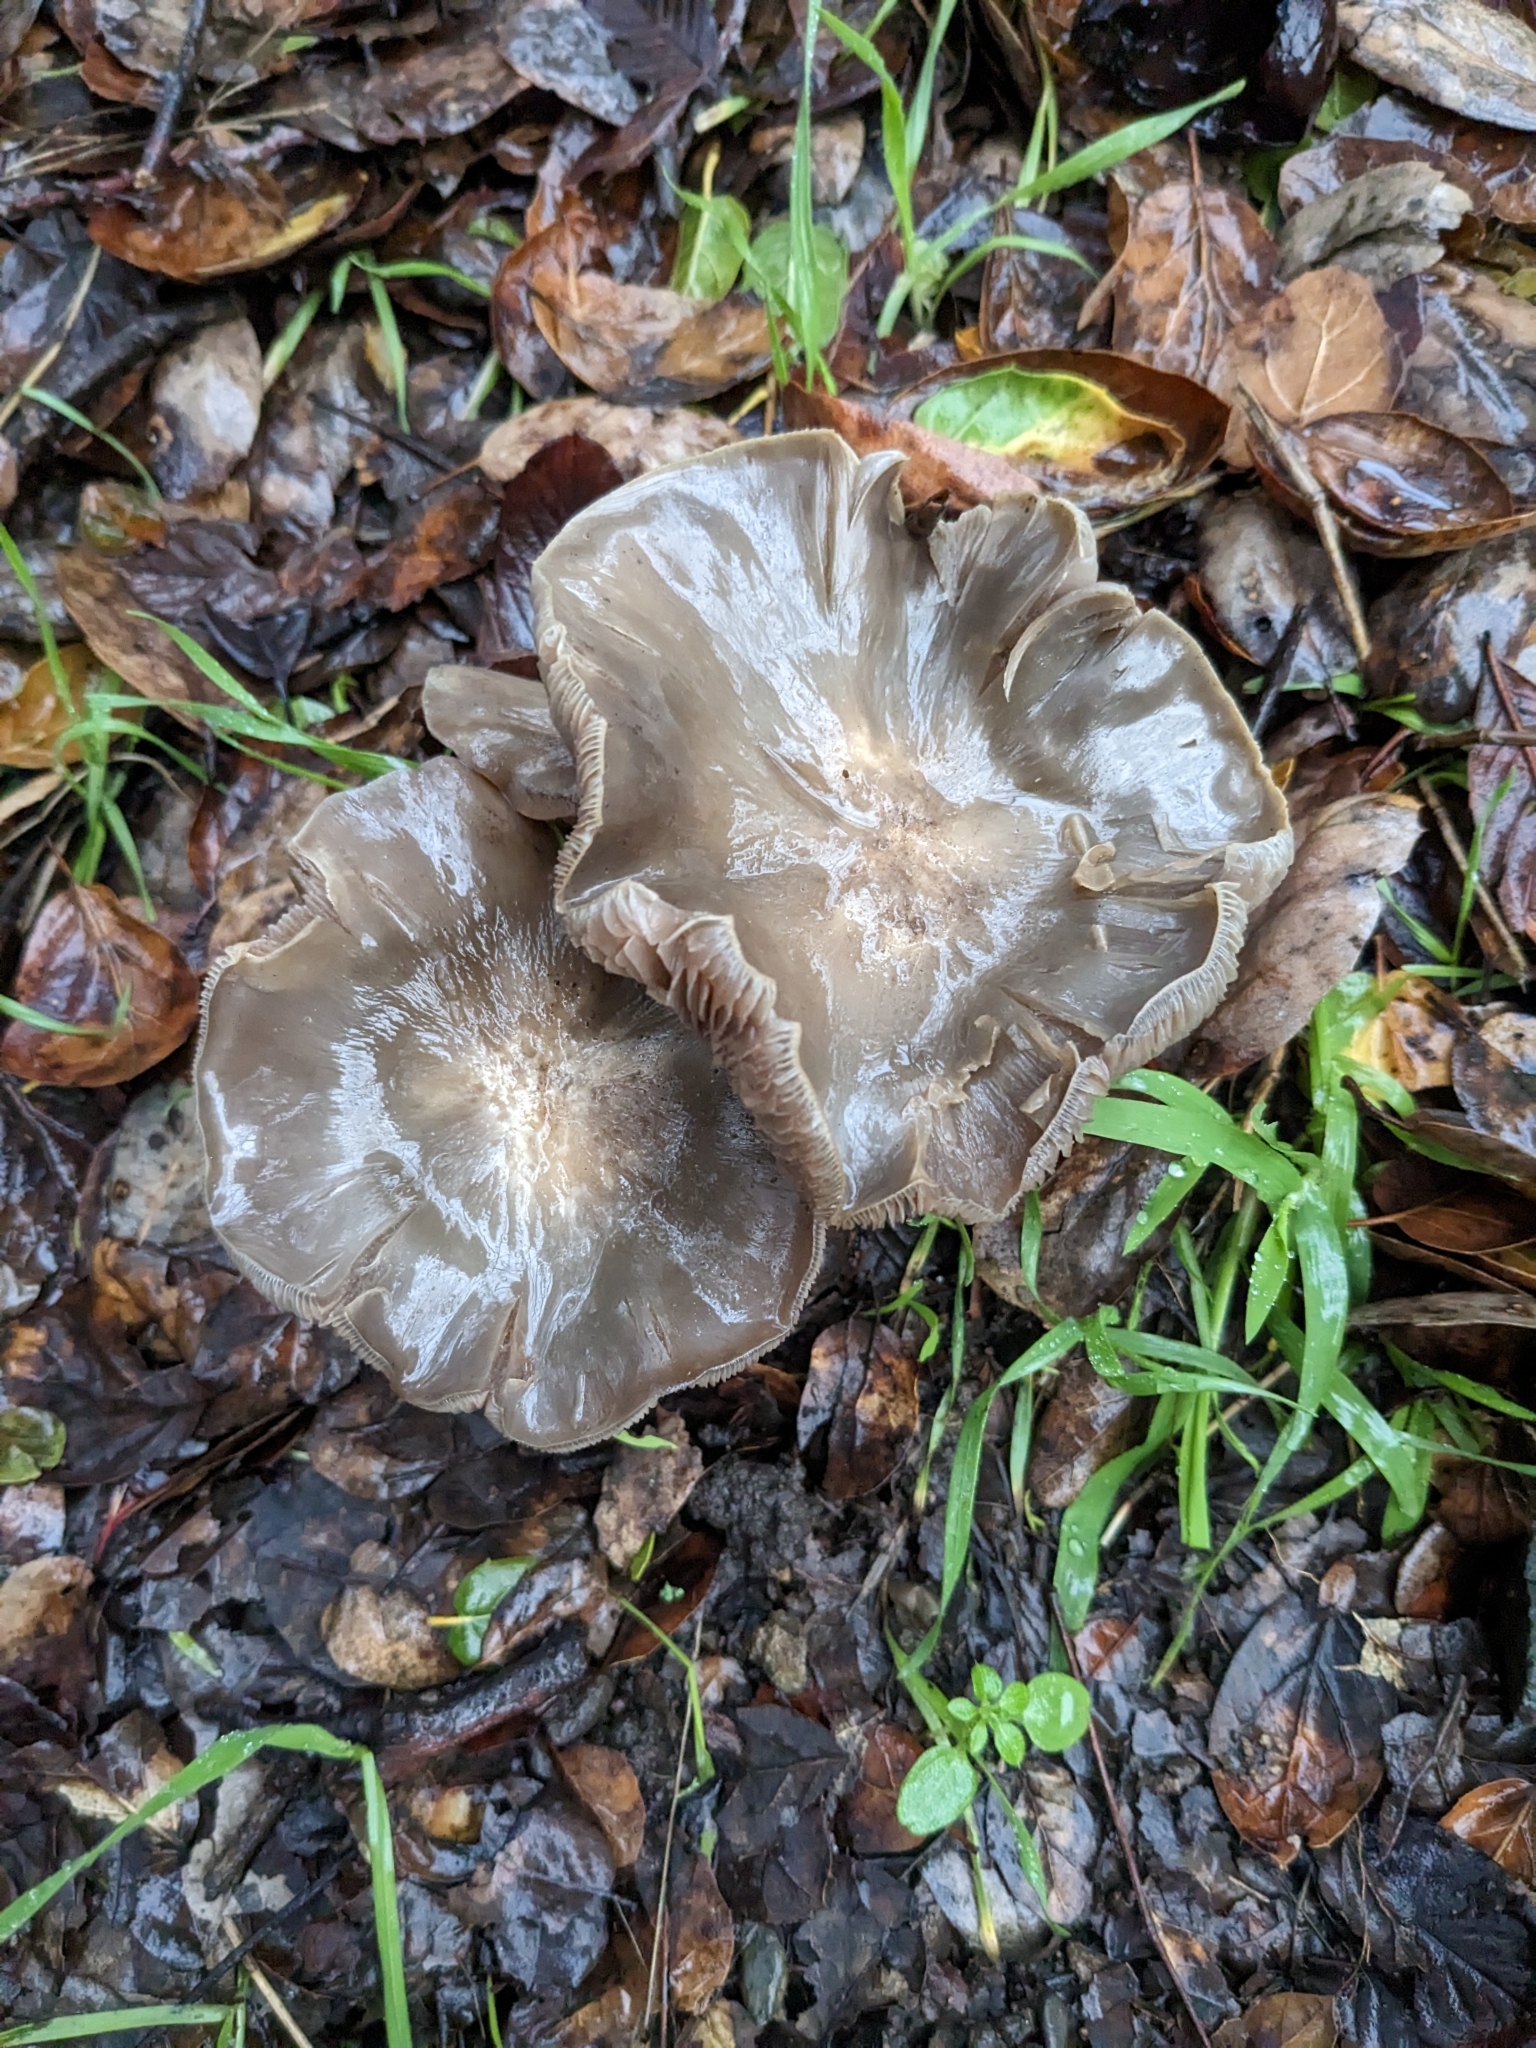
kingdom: Fungi
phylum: Basidiomycota
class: Agaricomycetes
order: Agaricales
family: Entolomataceae
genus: Entoloma
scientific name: Entoloma ferruginans
